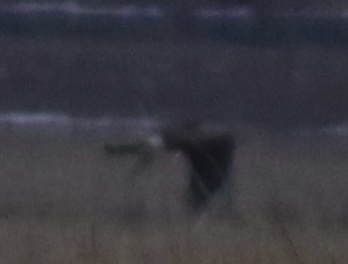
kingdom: Animalia
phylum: Chordata
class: Aves
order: Accipitriformes
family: Accipitridae
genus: Circus
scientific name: Circus cyaneus
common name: Hen harrier
